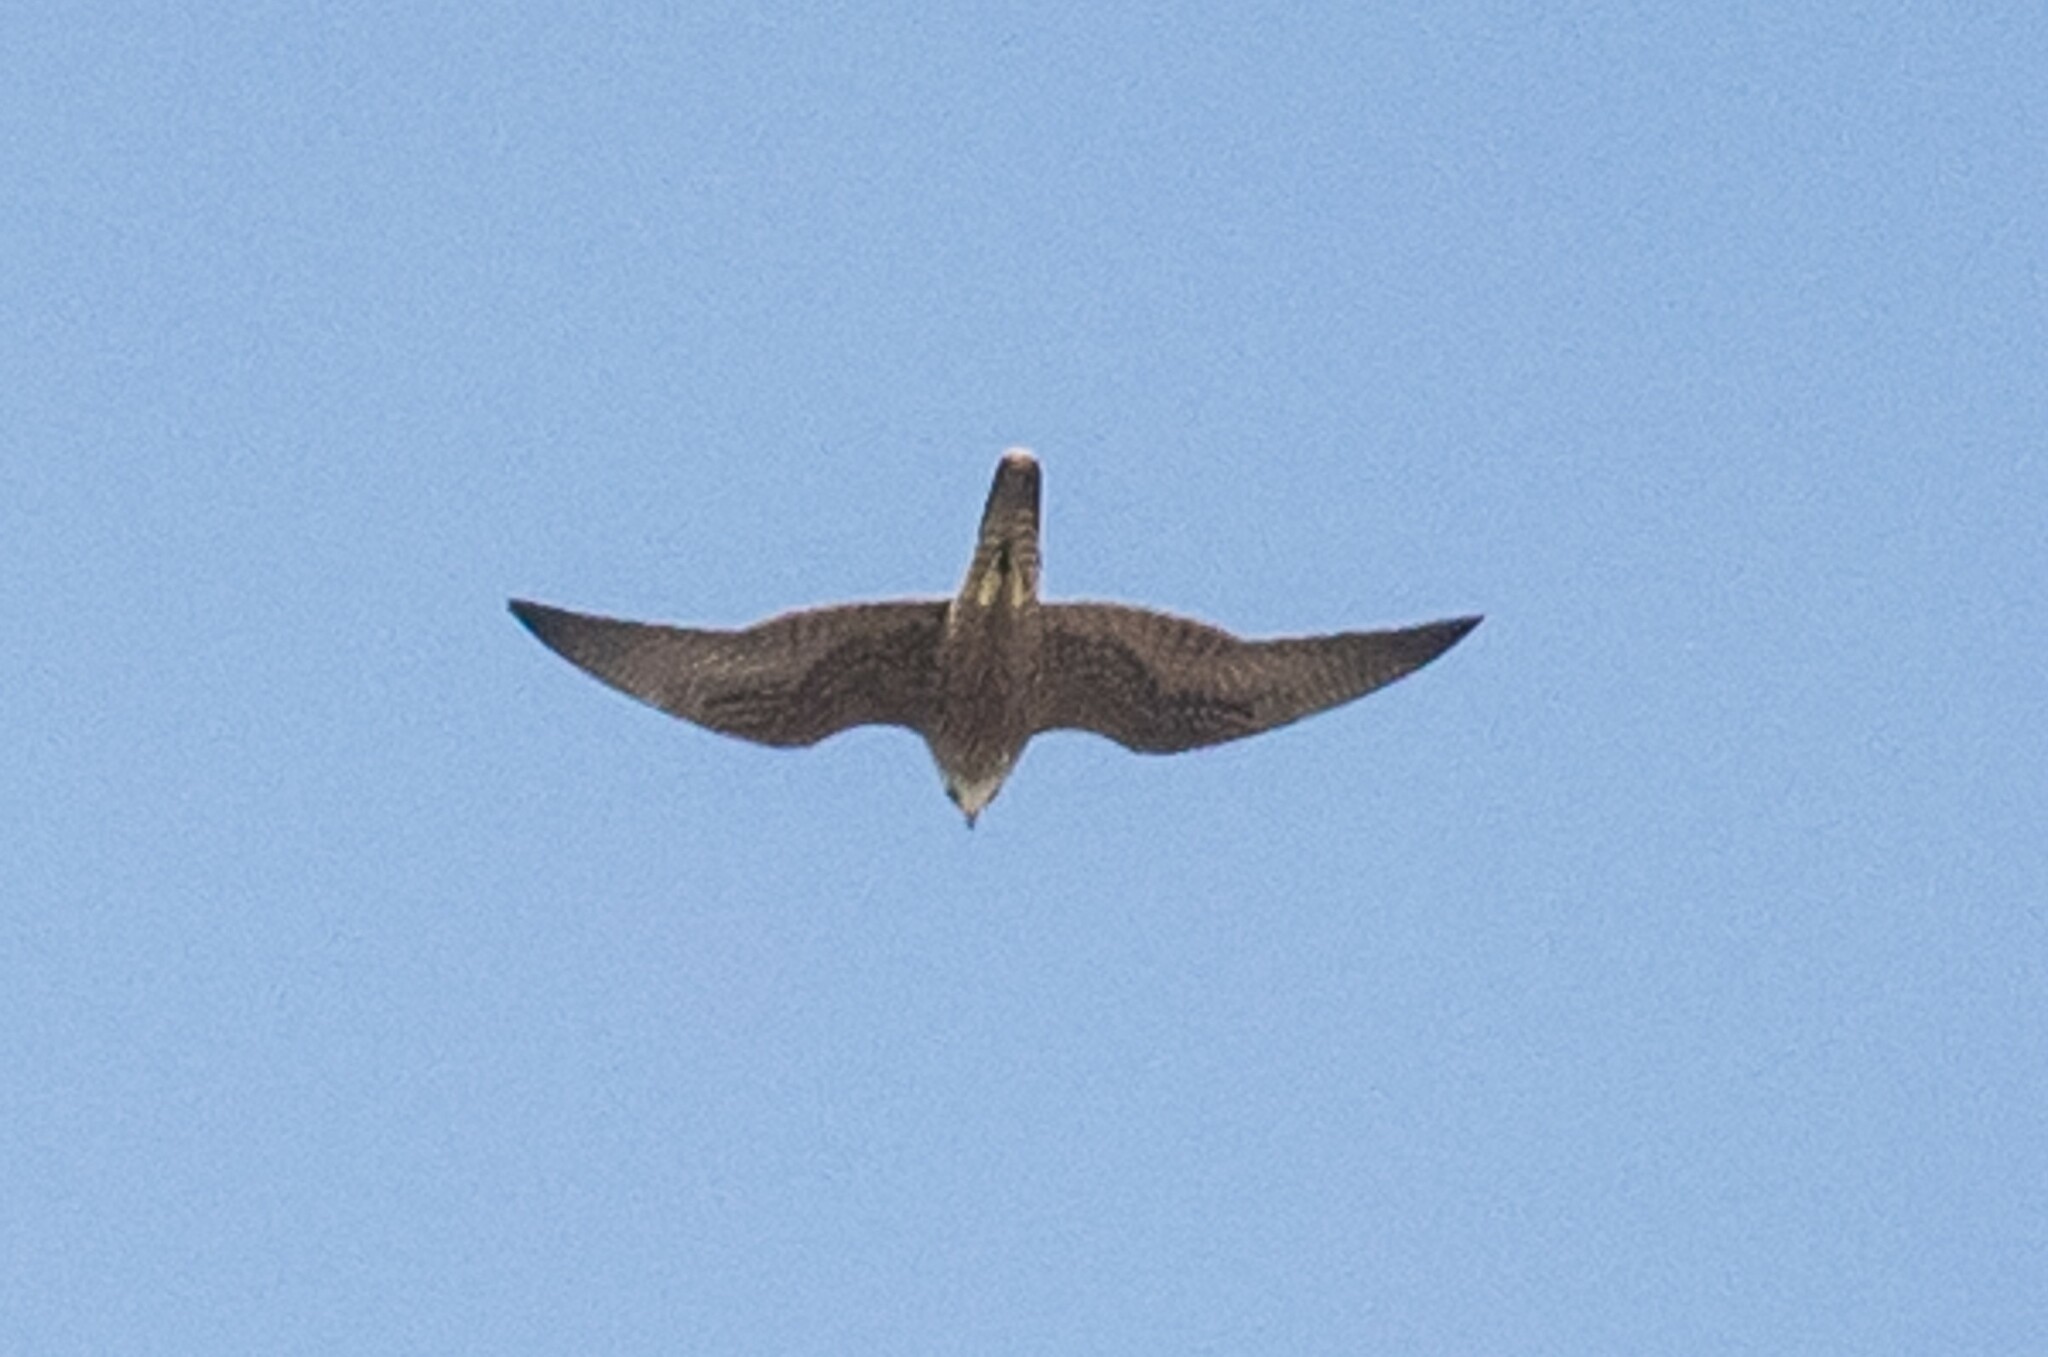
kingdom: Animalia
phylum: Chordata
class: Aves
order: Falconiformes
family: Falconidae
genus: Falco
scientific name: Falco peregrinus
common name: Peregrine falcon
